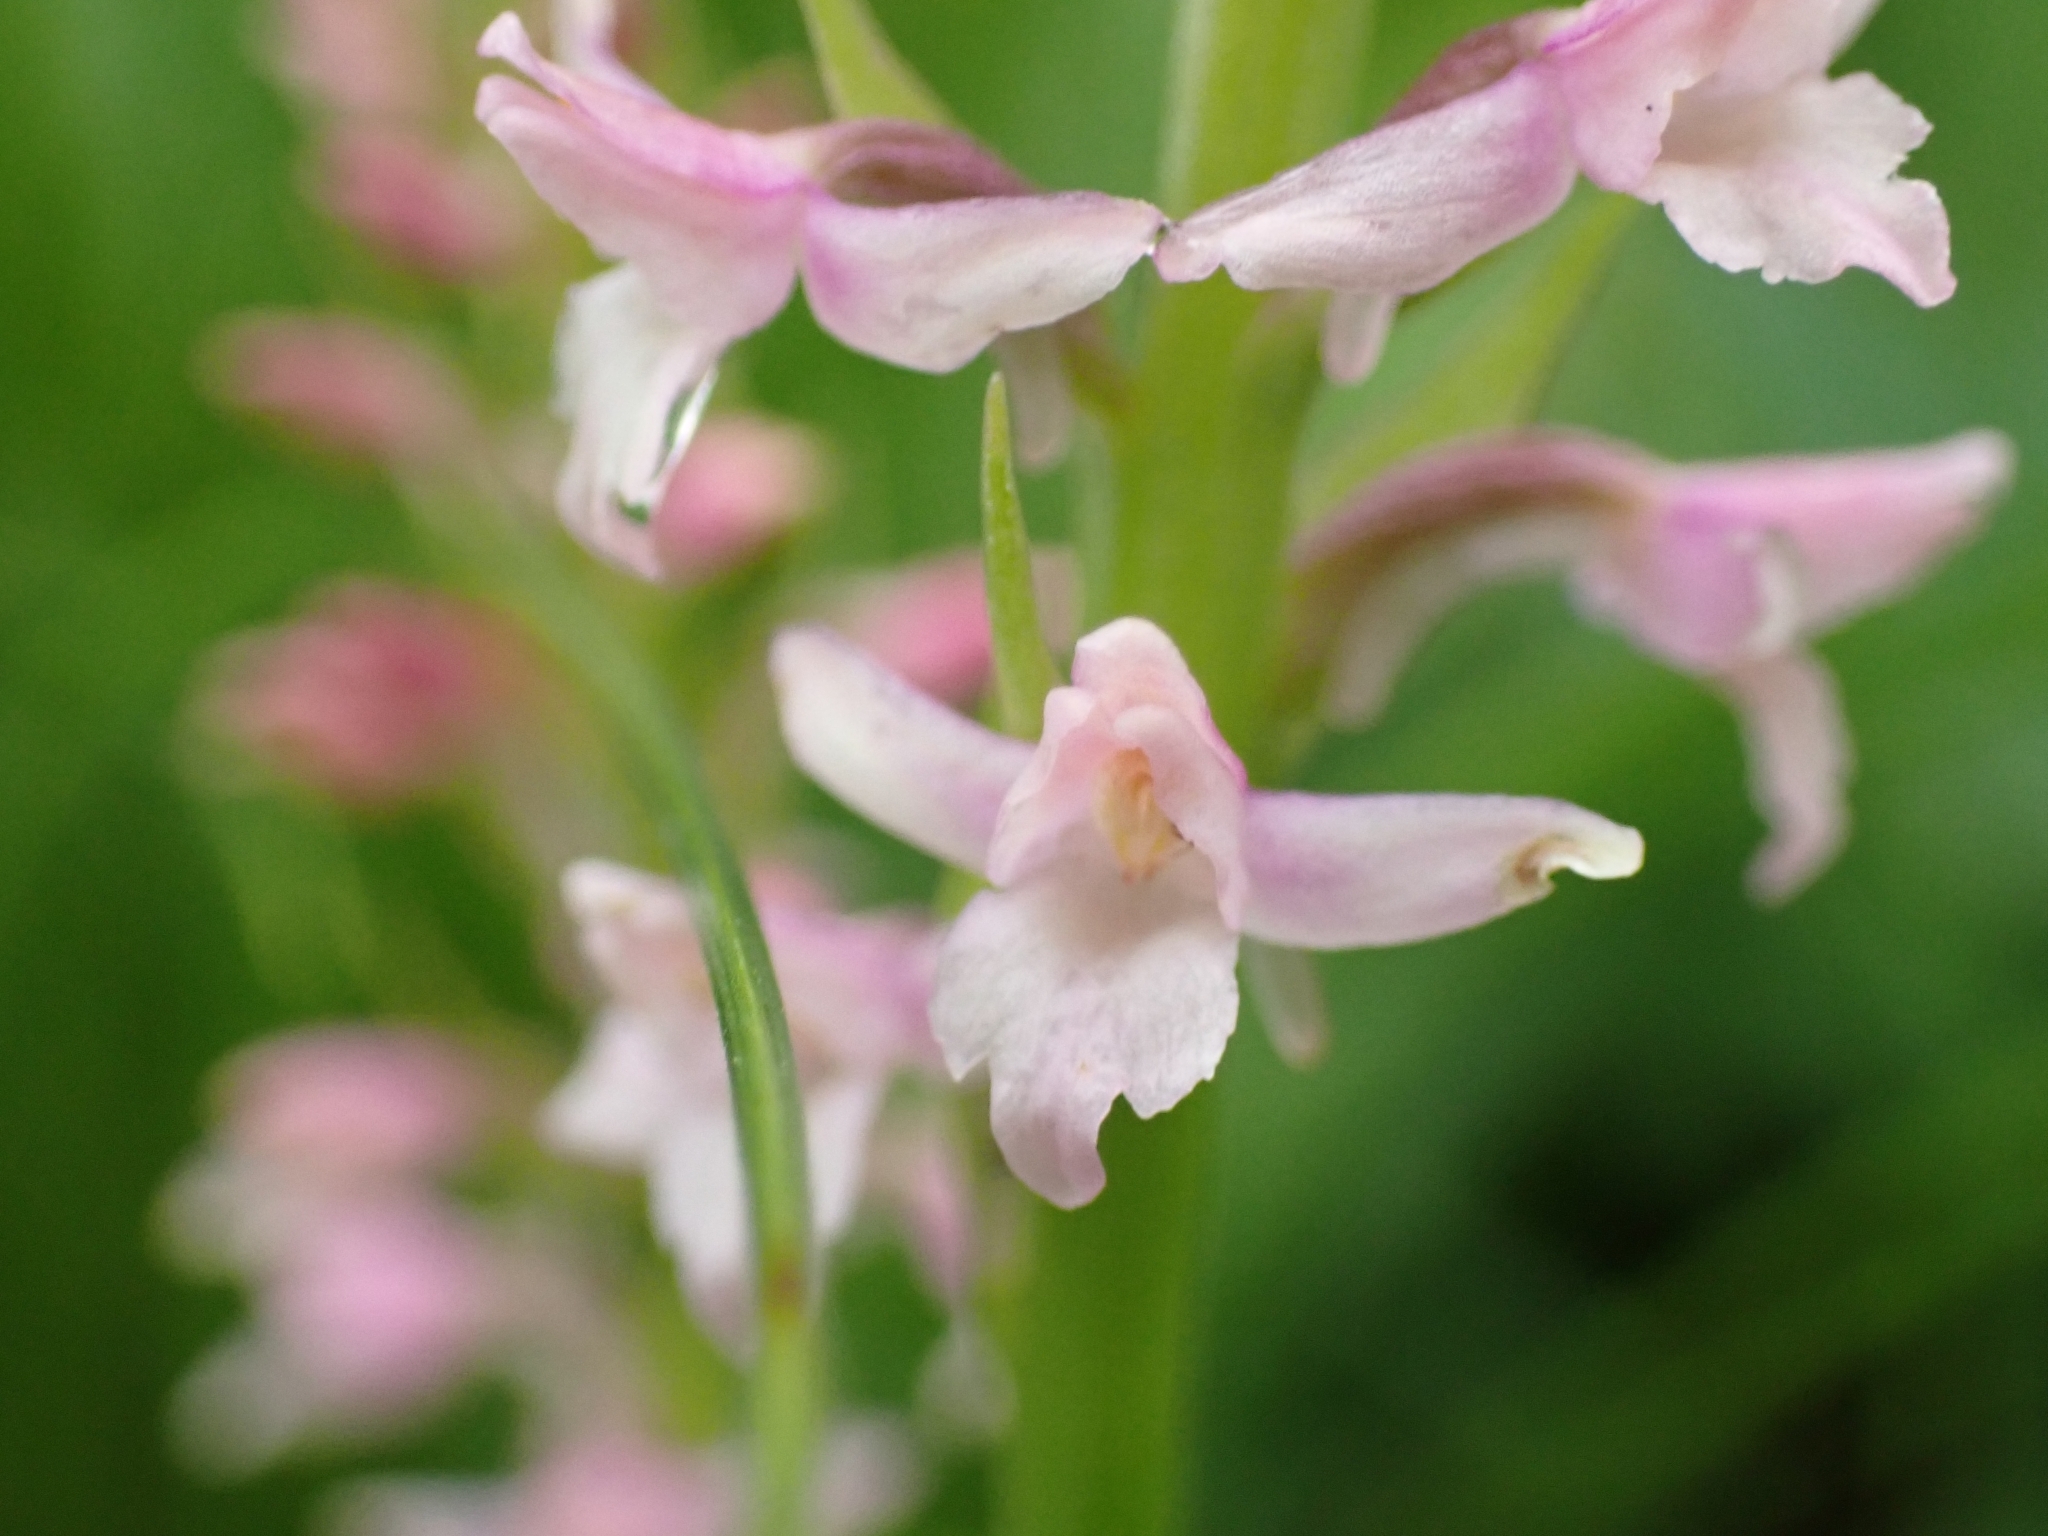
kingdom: Plantae
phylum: Tracheophyta
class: Liliopsida
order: Asparagales
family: Orchidaceae
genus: Gymnadenia
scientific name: Gymnadenia odoratissima
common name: Scented gymnadenia
